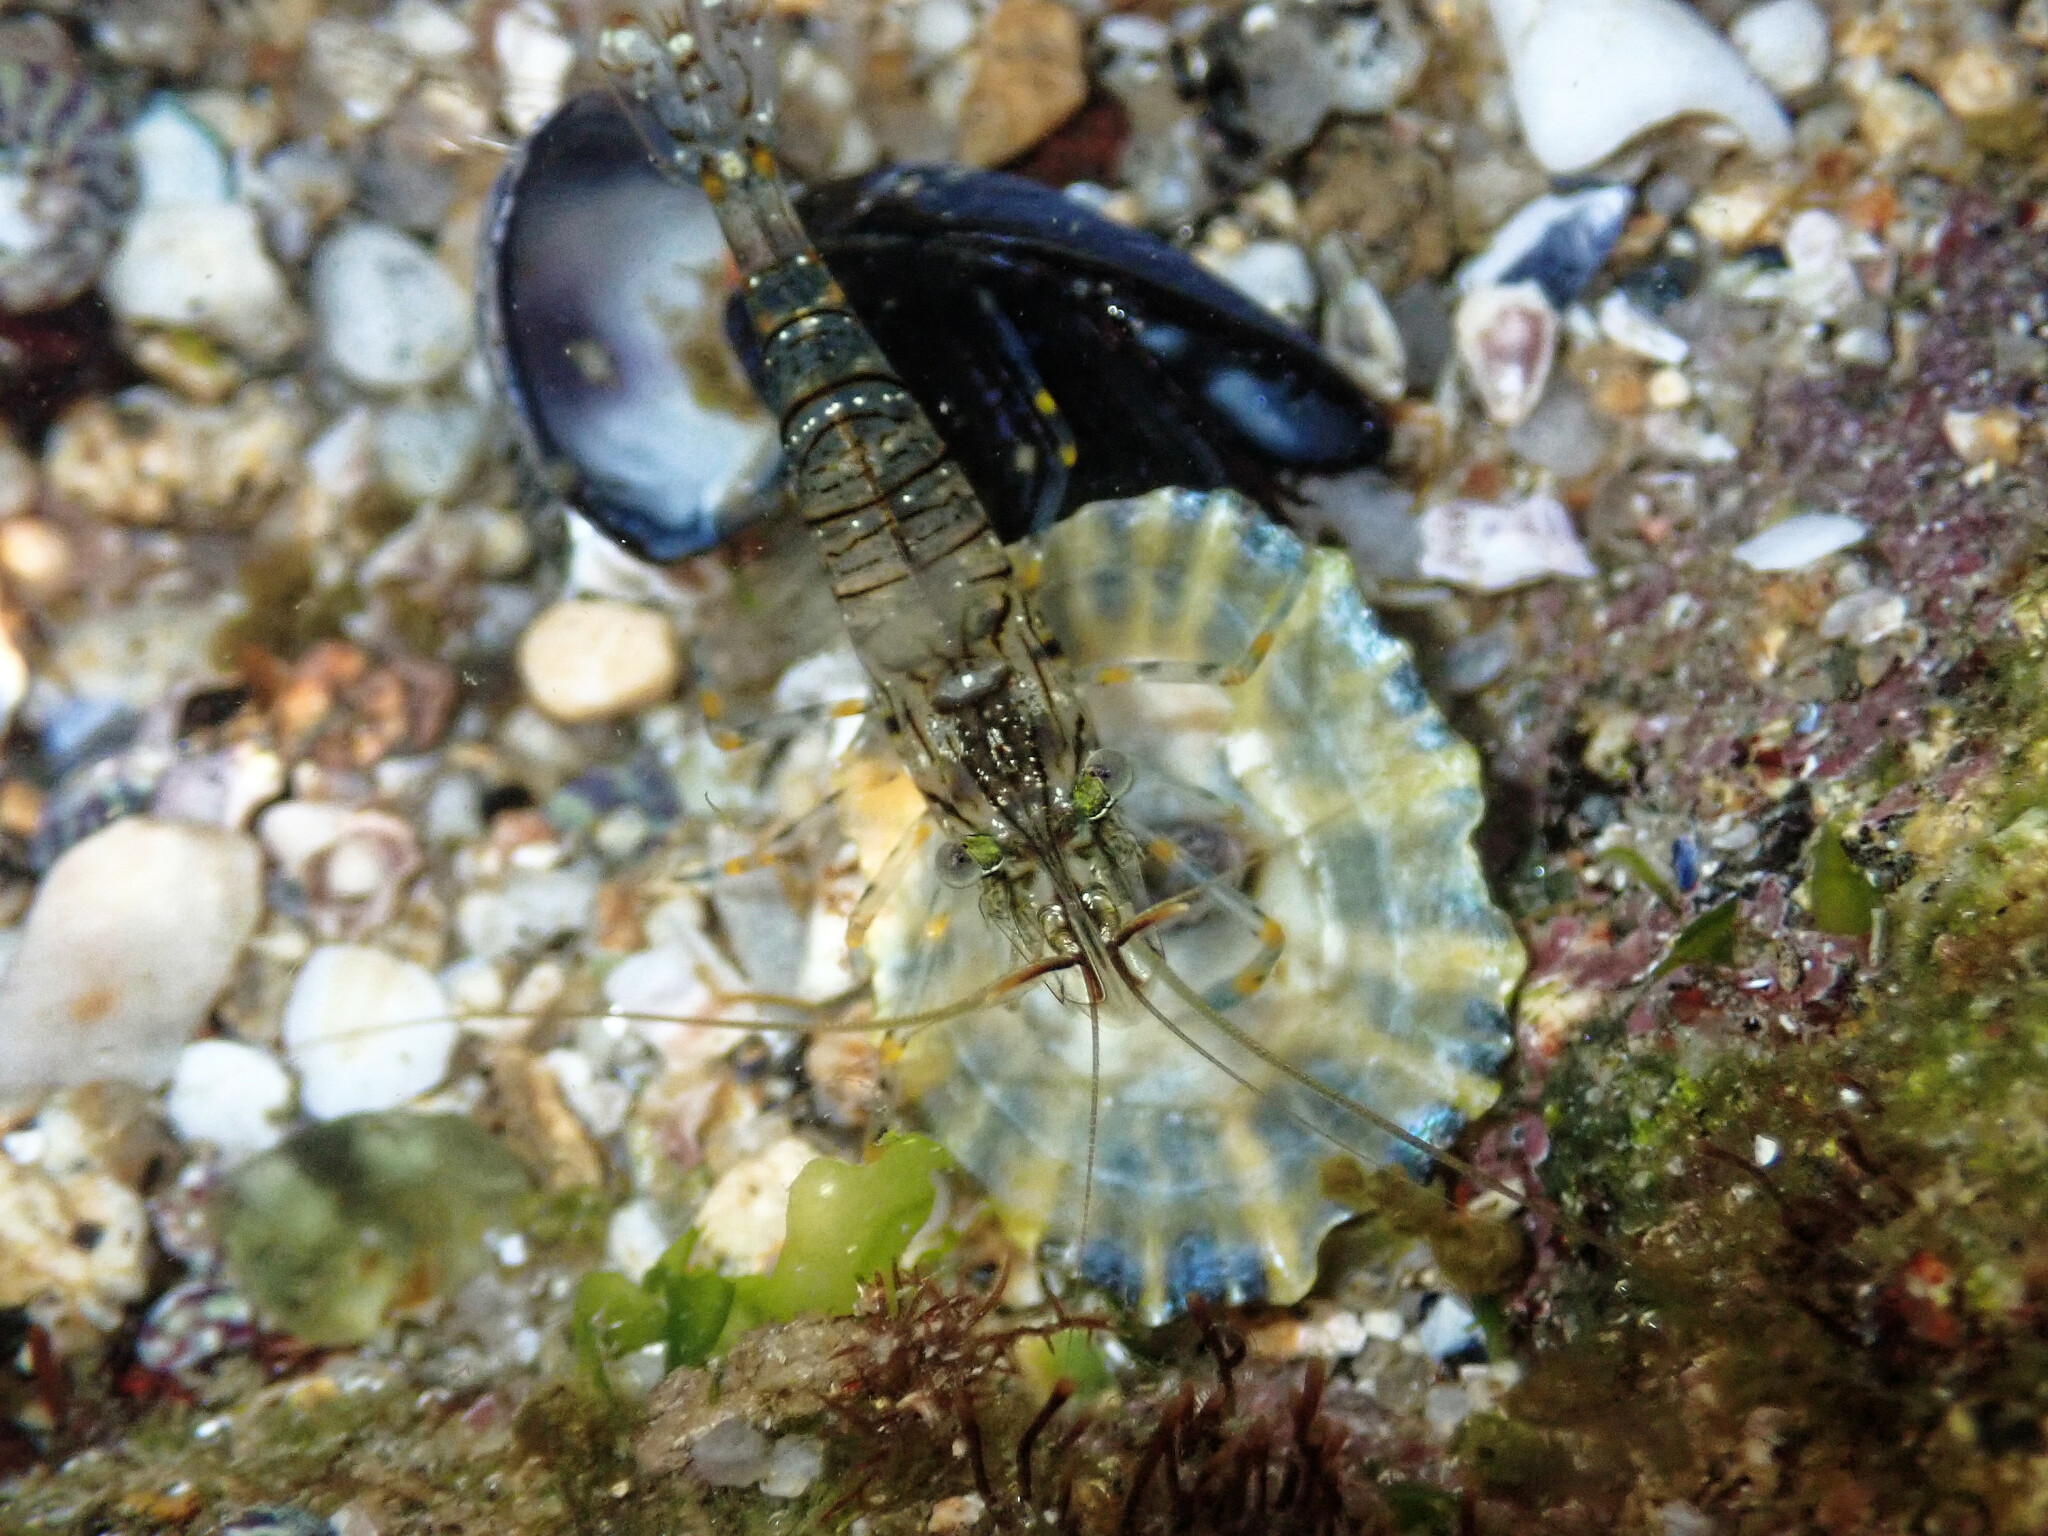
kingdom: Animalia
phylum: Arthropoda
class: Malacostraca
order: Decapoda
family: Palaemonidae
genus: Palaemon
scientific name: Palaemon elegans
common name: Grass prawm
